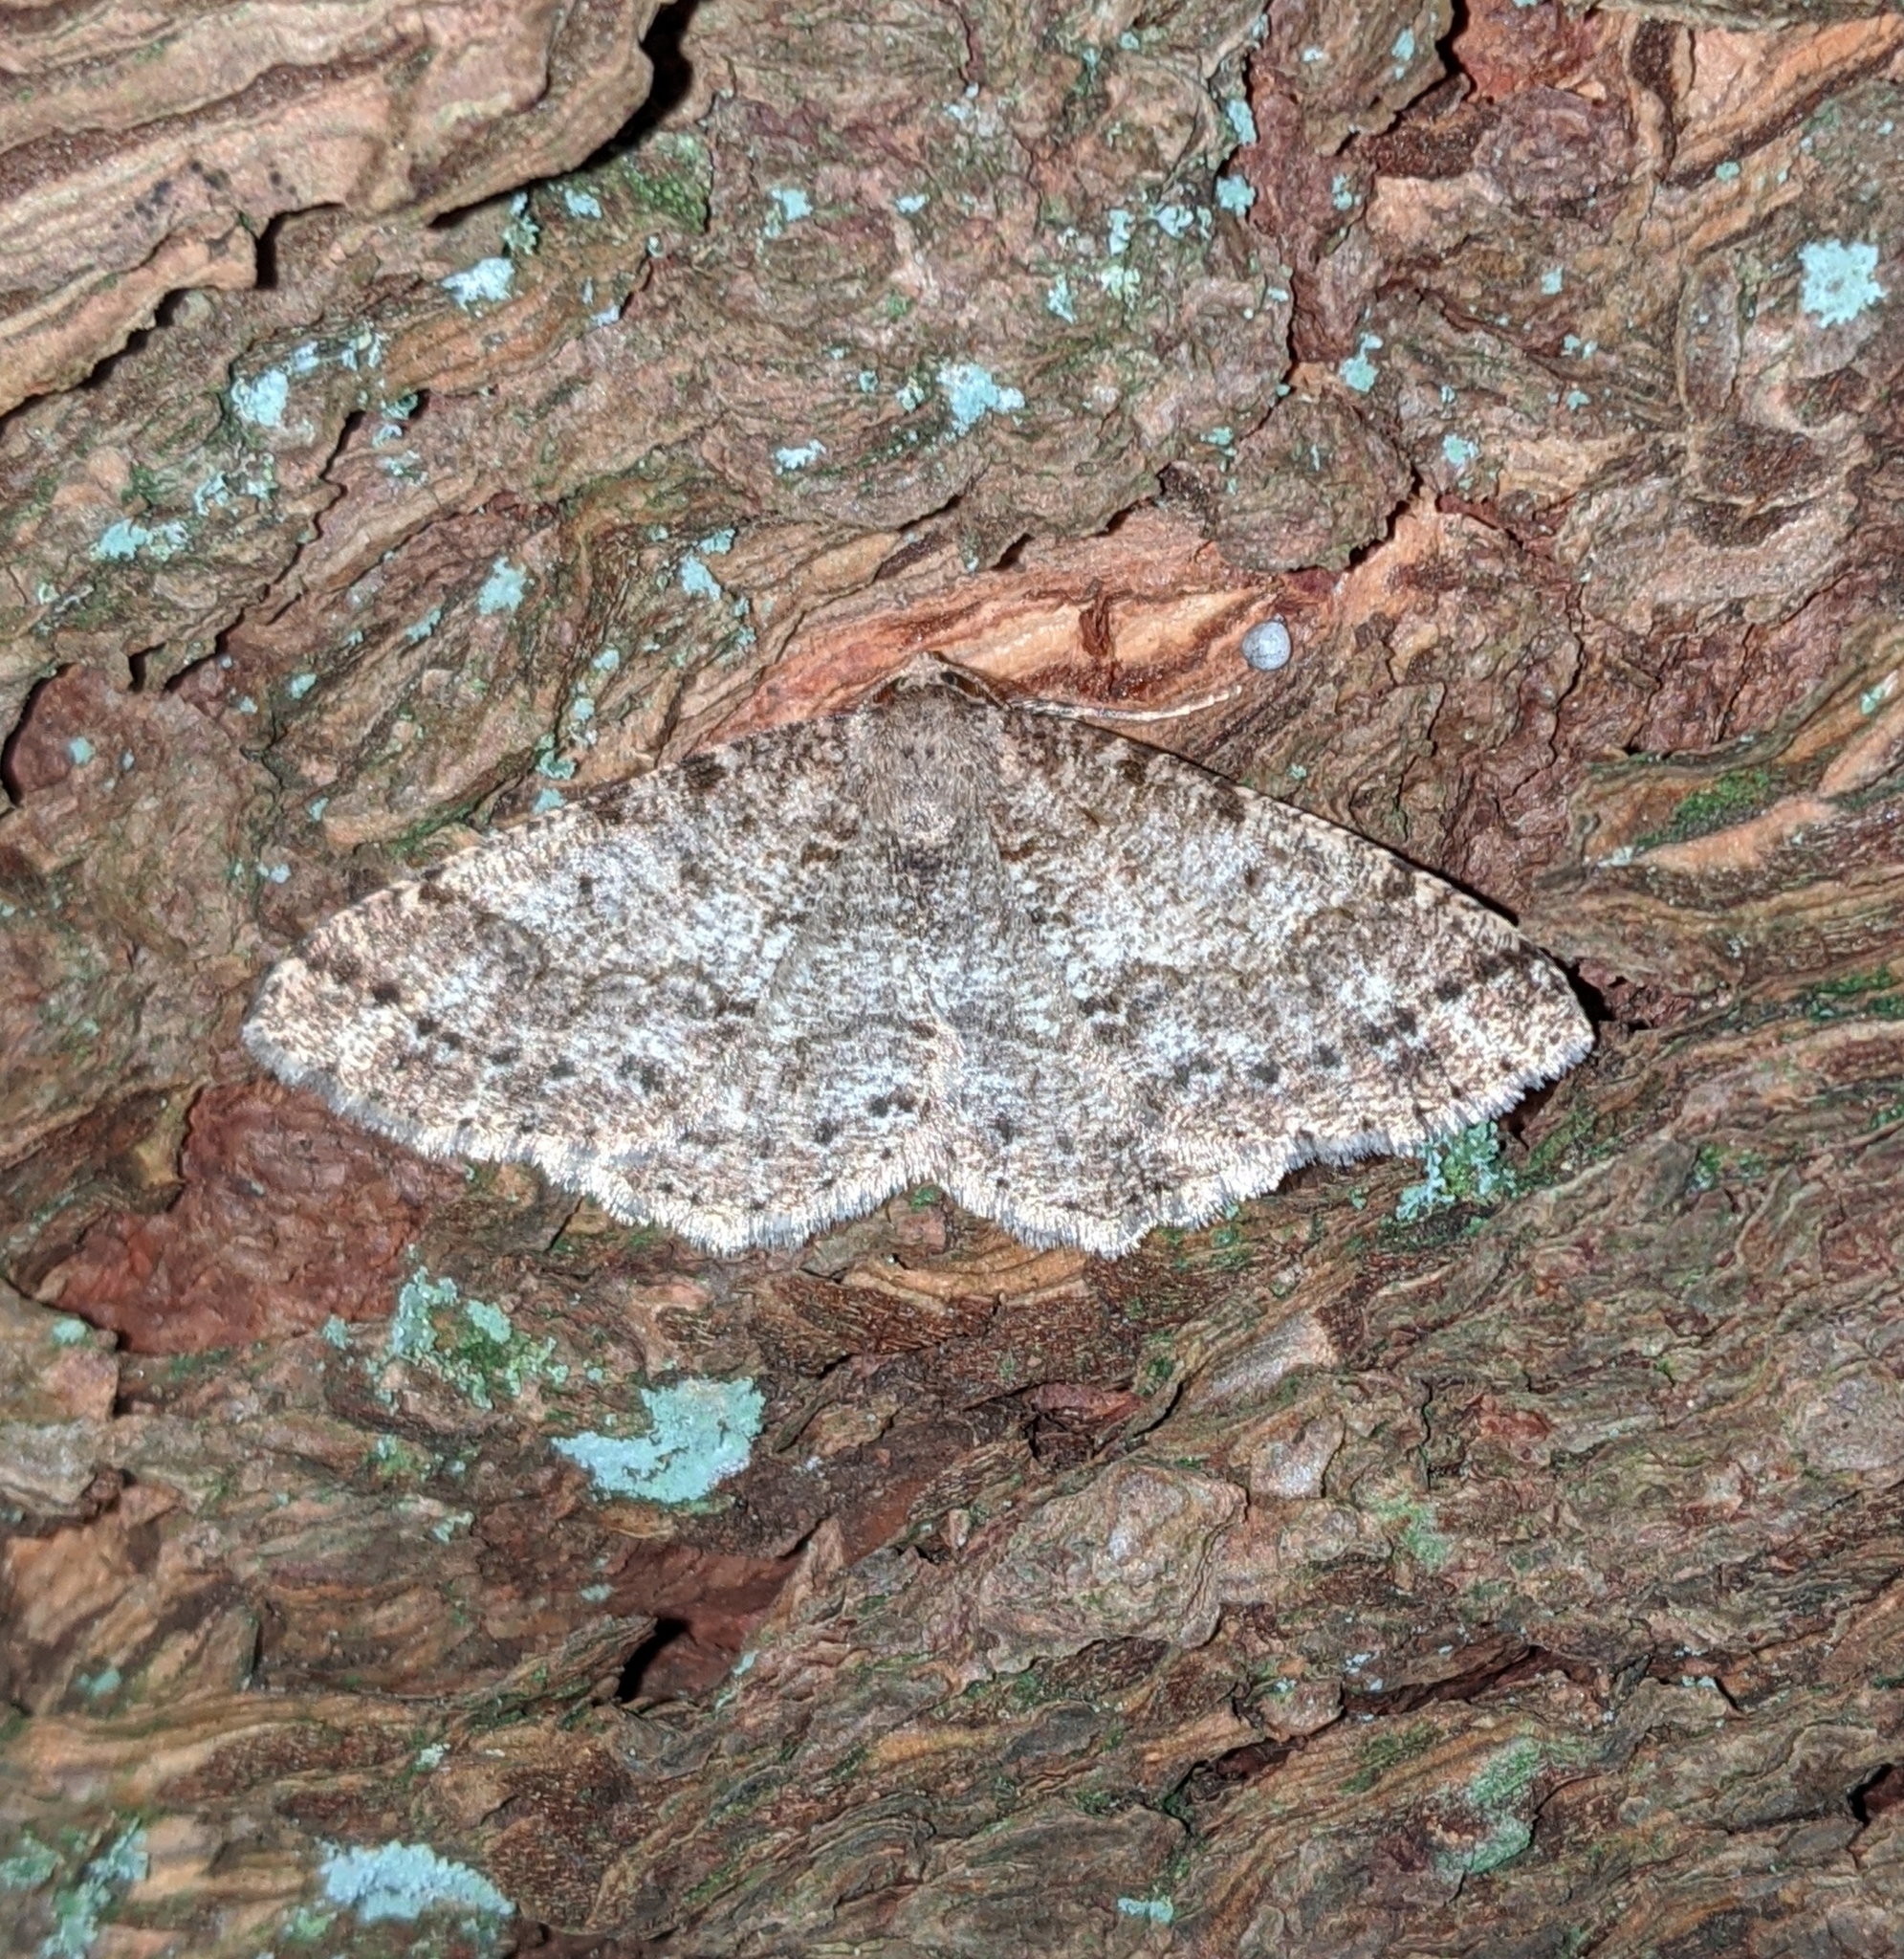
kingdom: Animalia
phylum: Arthropoda
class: Insecta
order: Lepidoptera
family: Geometridae
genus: Melanolophia
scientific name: Melanolophia imitata
